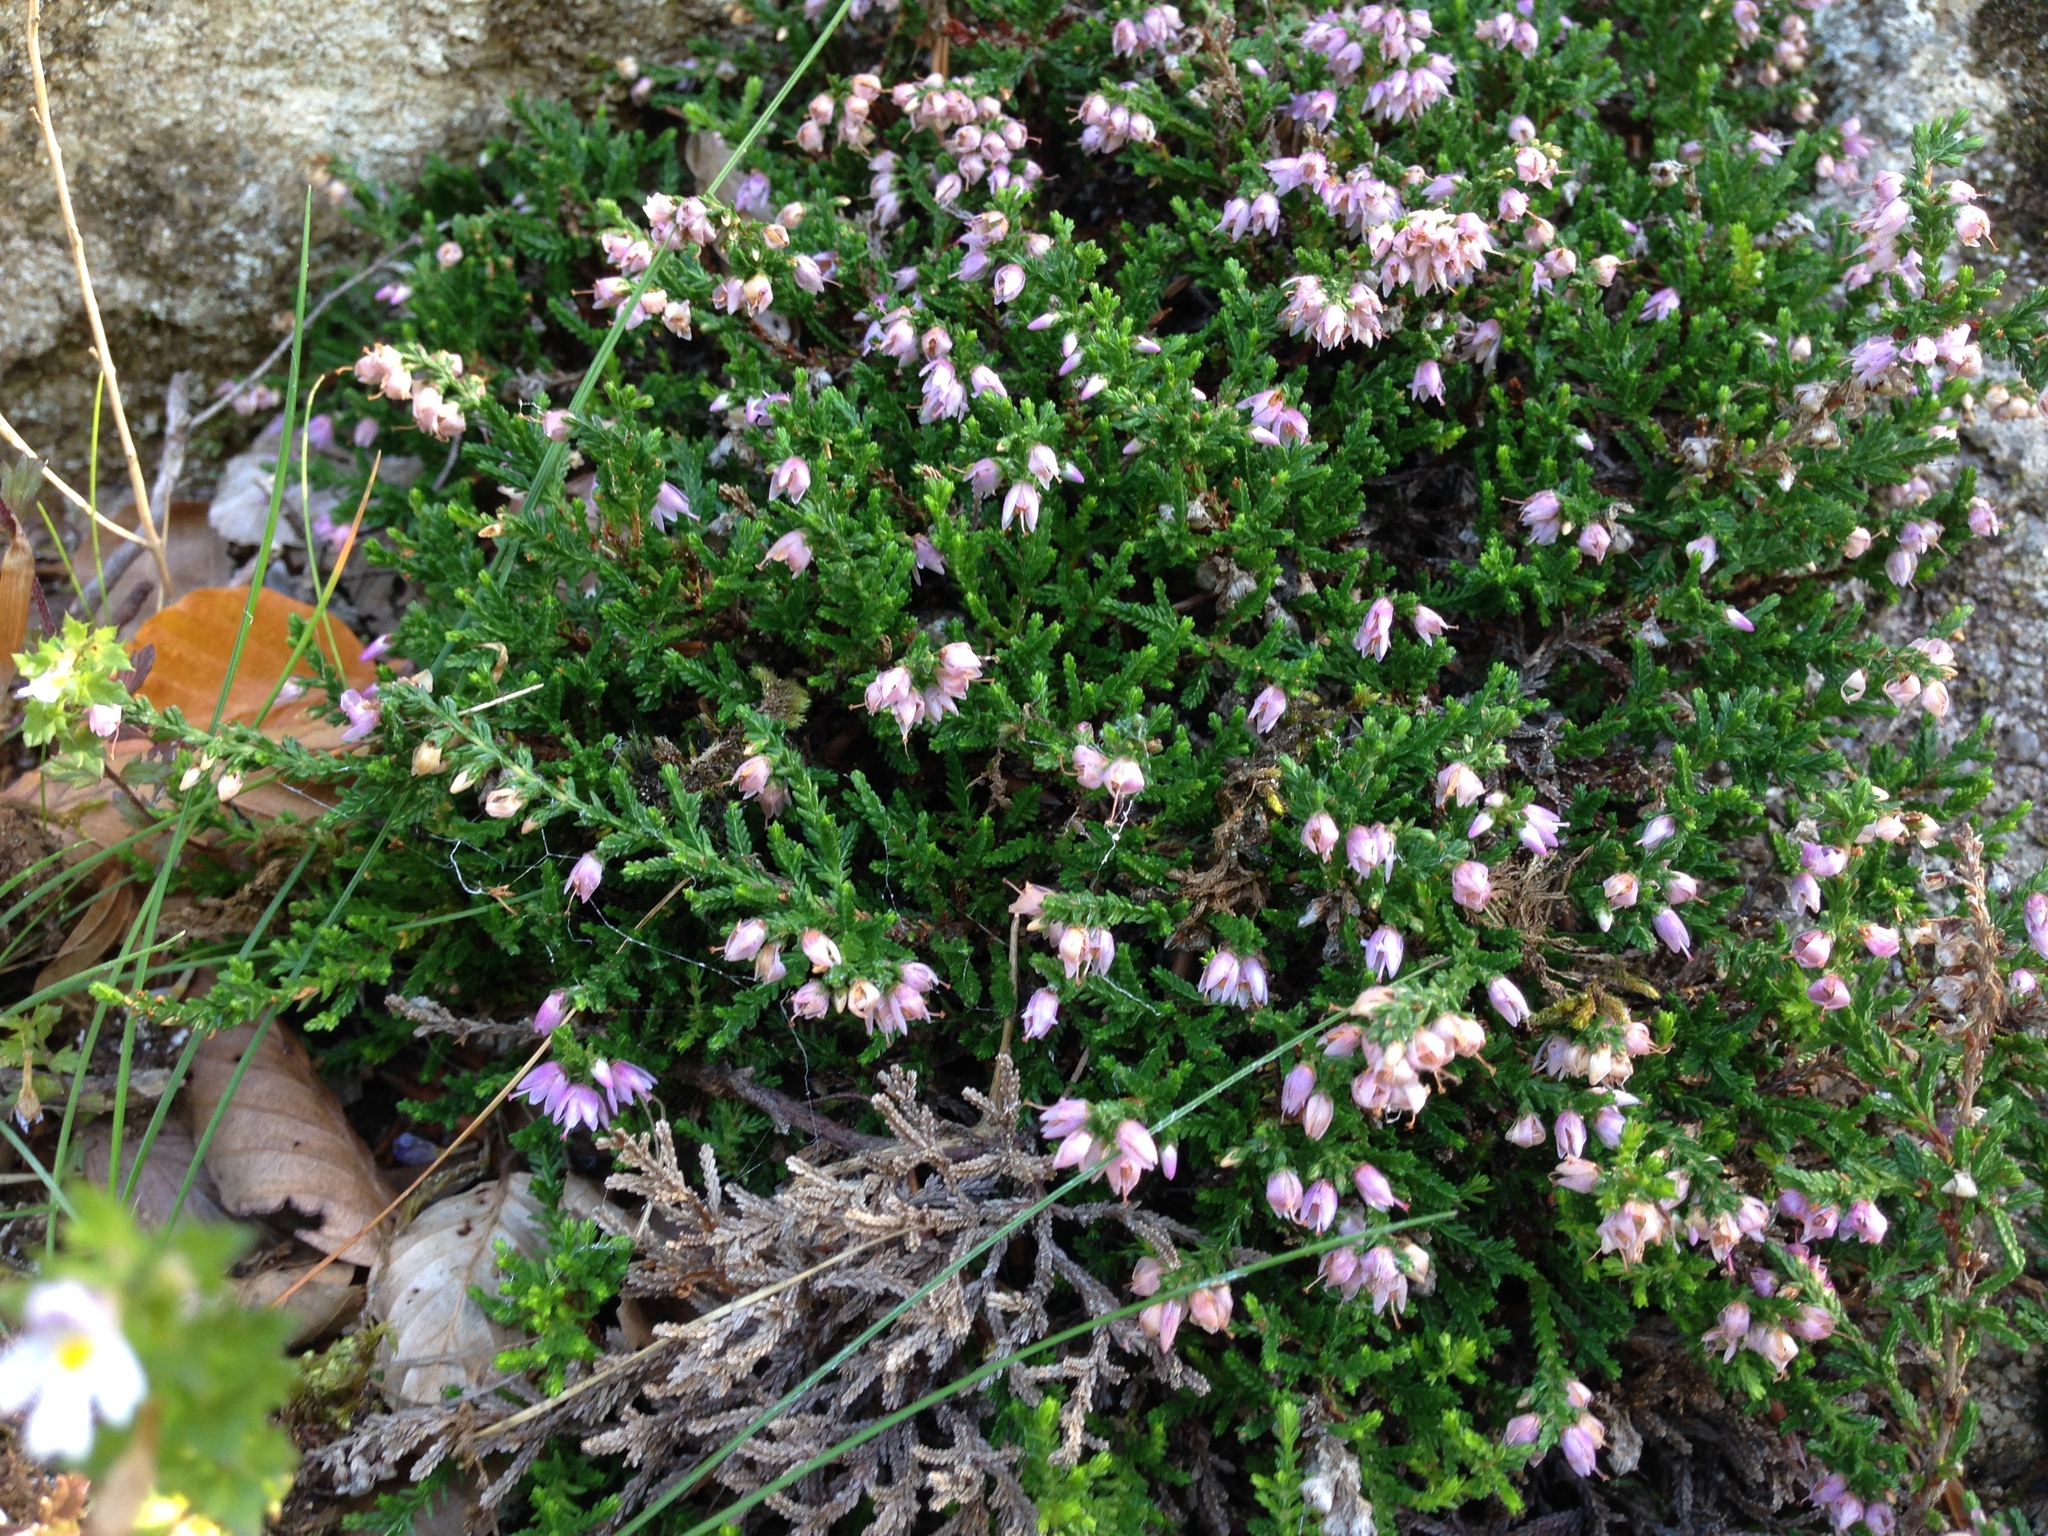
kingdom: Plantae
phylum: Tracheophyta
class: Magnoliopsida
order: Ericales
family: Ericaceae
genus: Calluna
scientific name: Calluna vulgaris
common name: Heather
